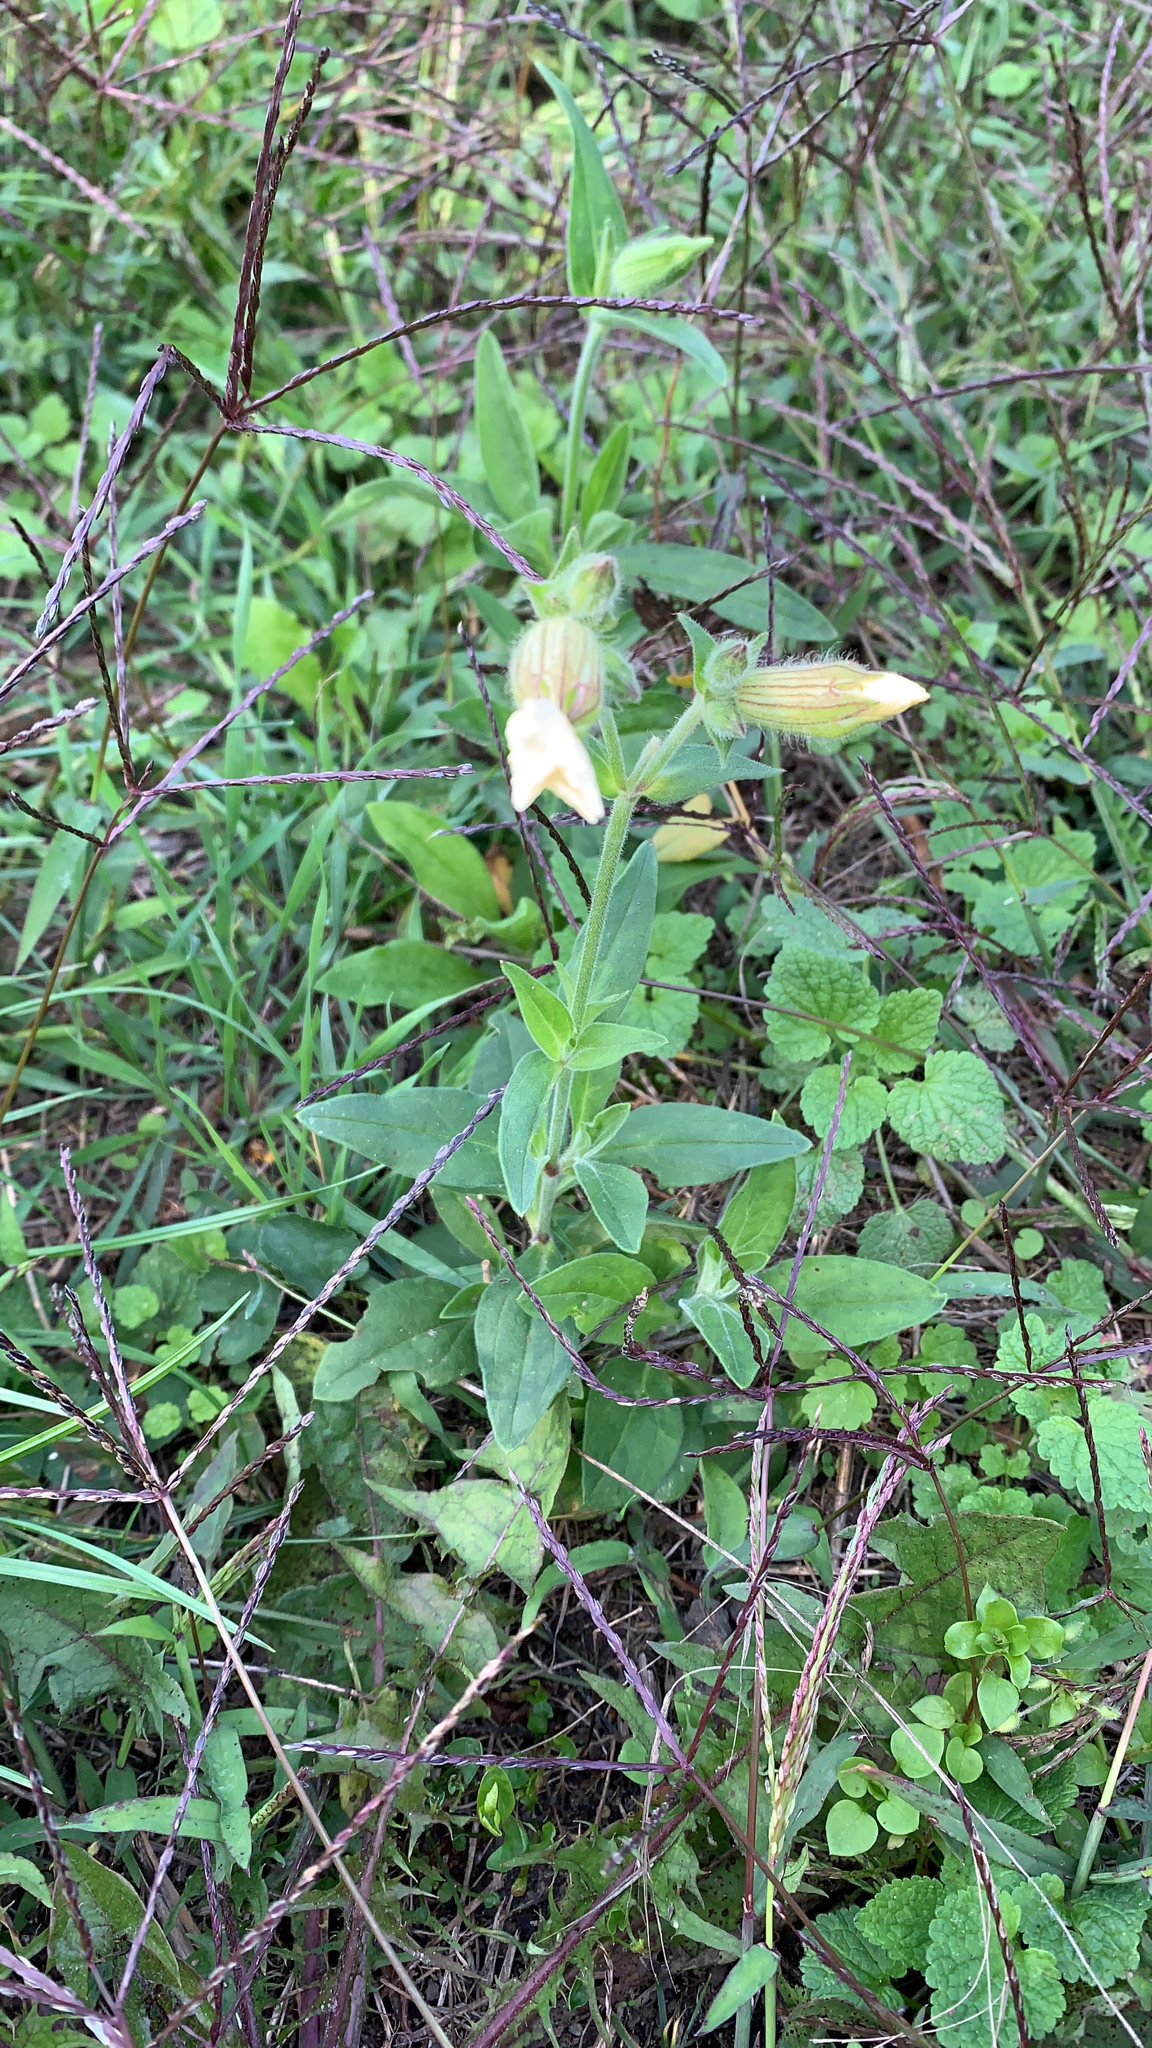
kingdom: Plantae
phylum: Tracheophyta
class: Magnoliopsida
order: Caryophyllales
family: Caryophyllaceae
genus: Silene
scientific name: Silene latifolia
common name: White campion
